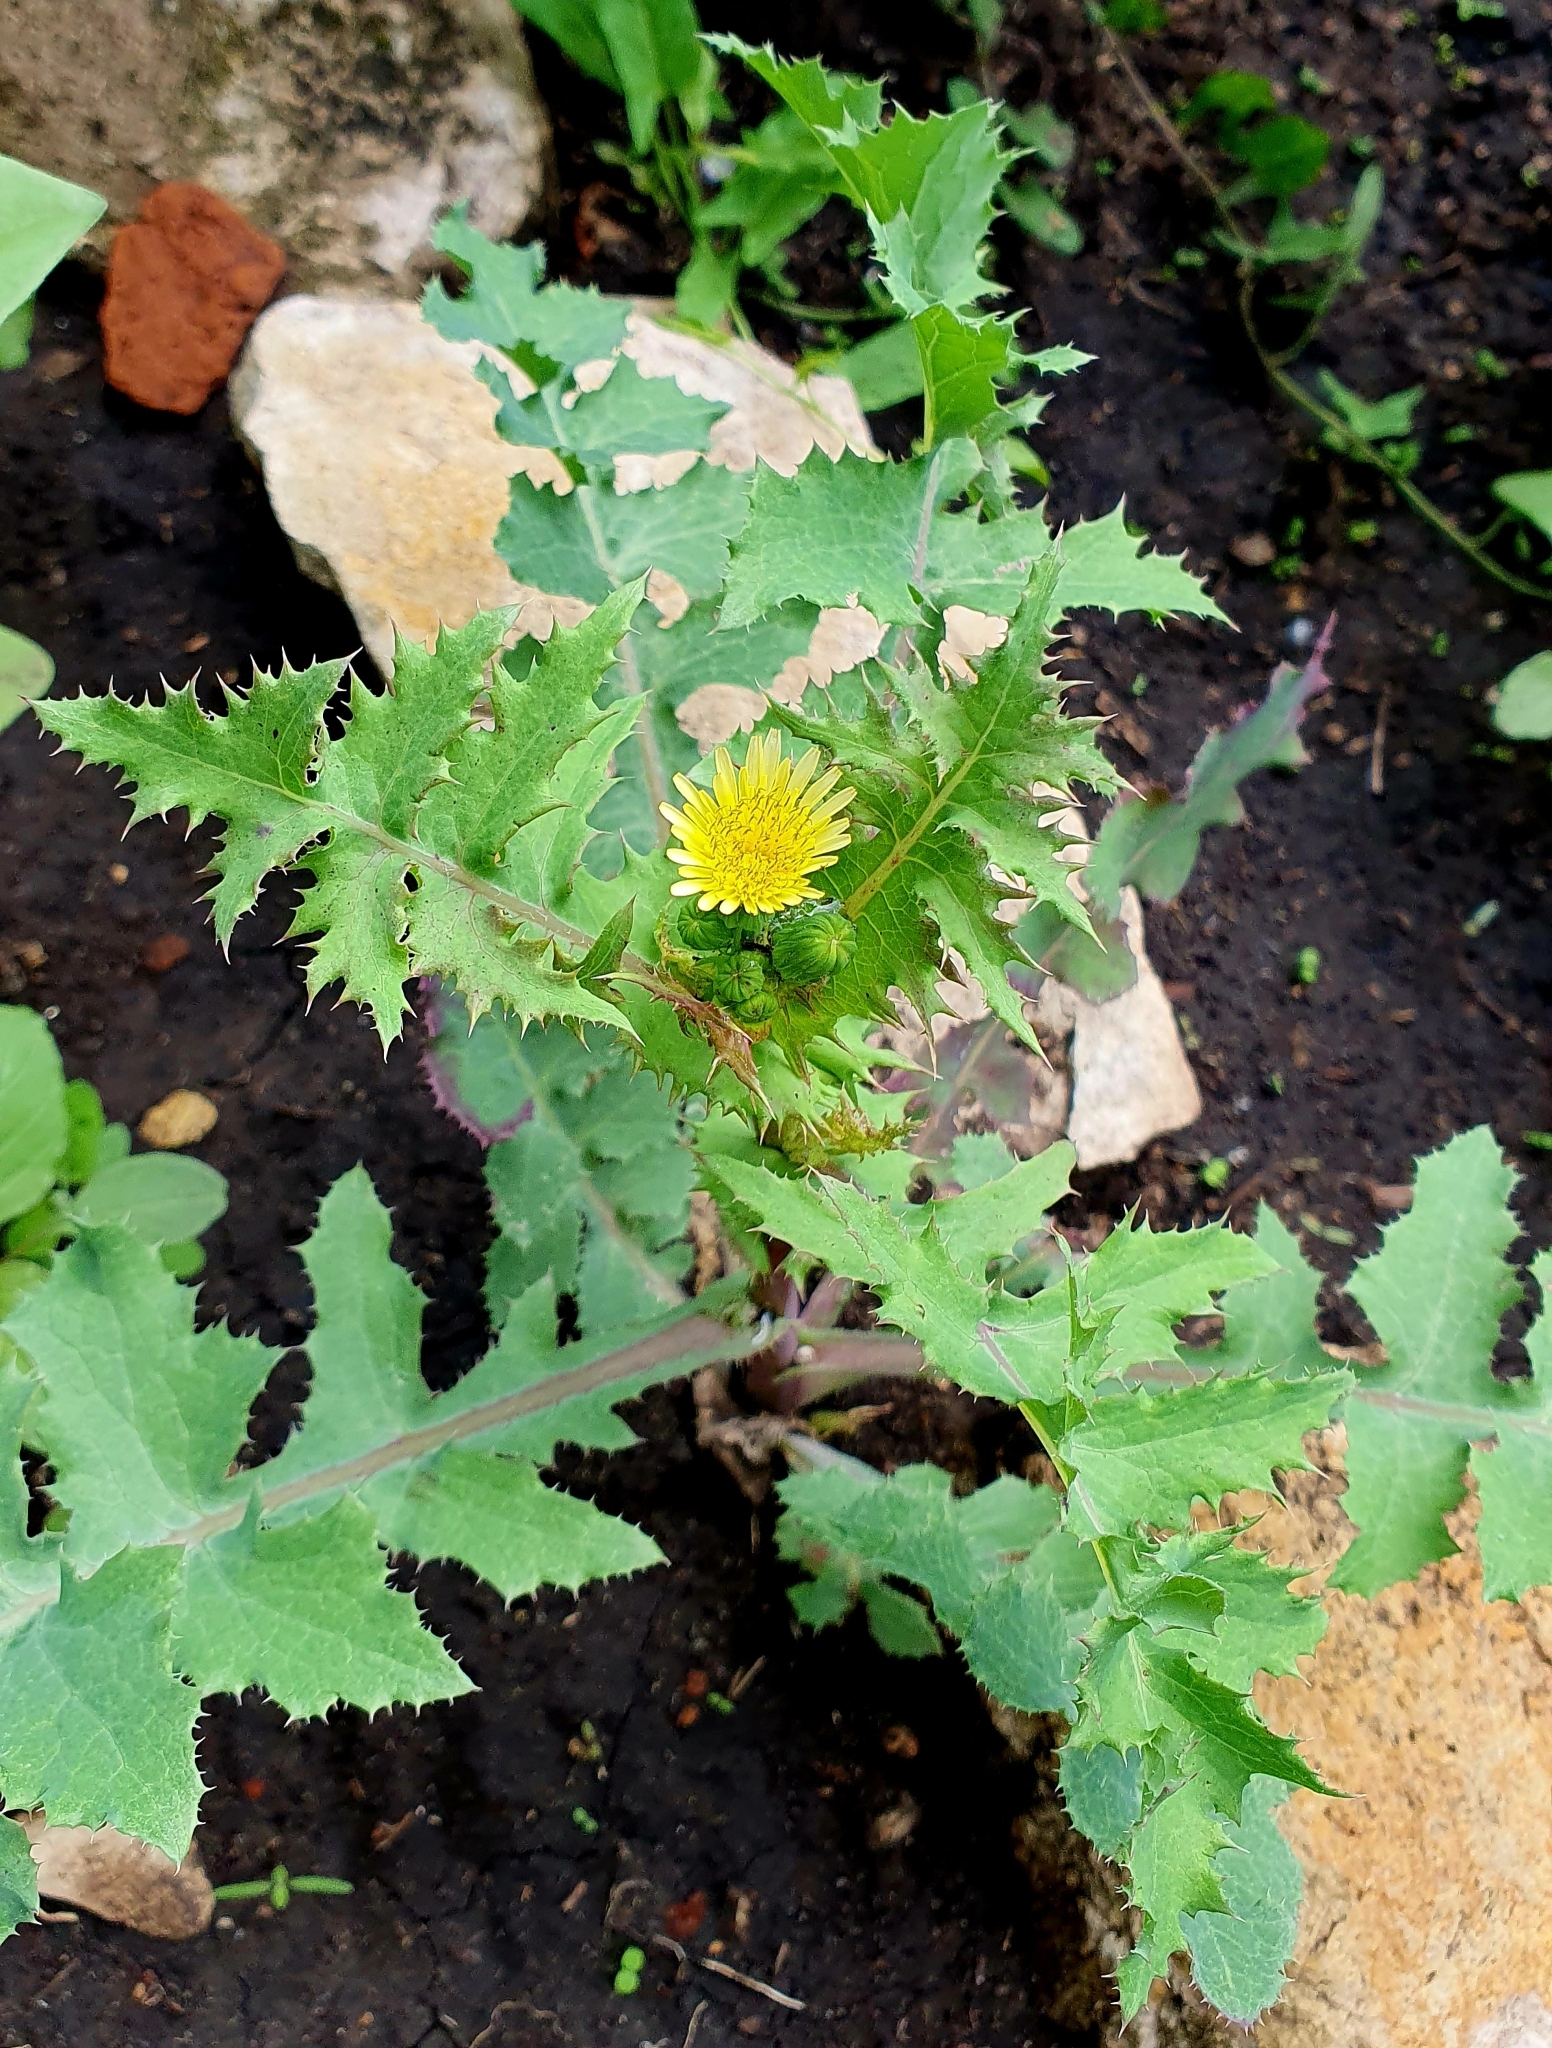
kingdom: Plantae
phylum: Tracheophyta
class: Magnoliopsida
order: Asterales
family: Asteraceae
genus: Sonchus
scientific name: Sonchus oleraceus
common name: Common sowthistle
